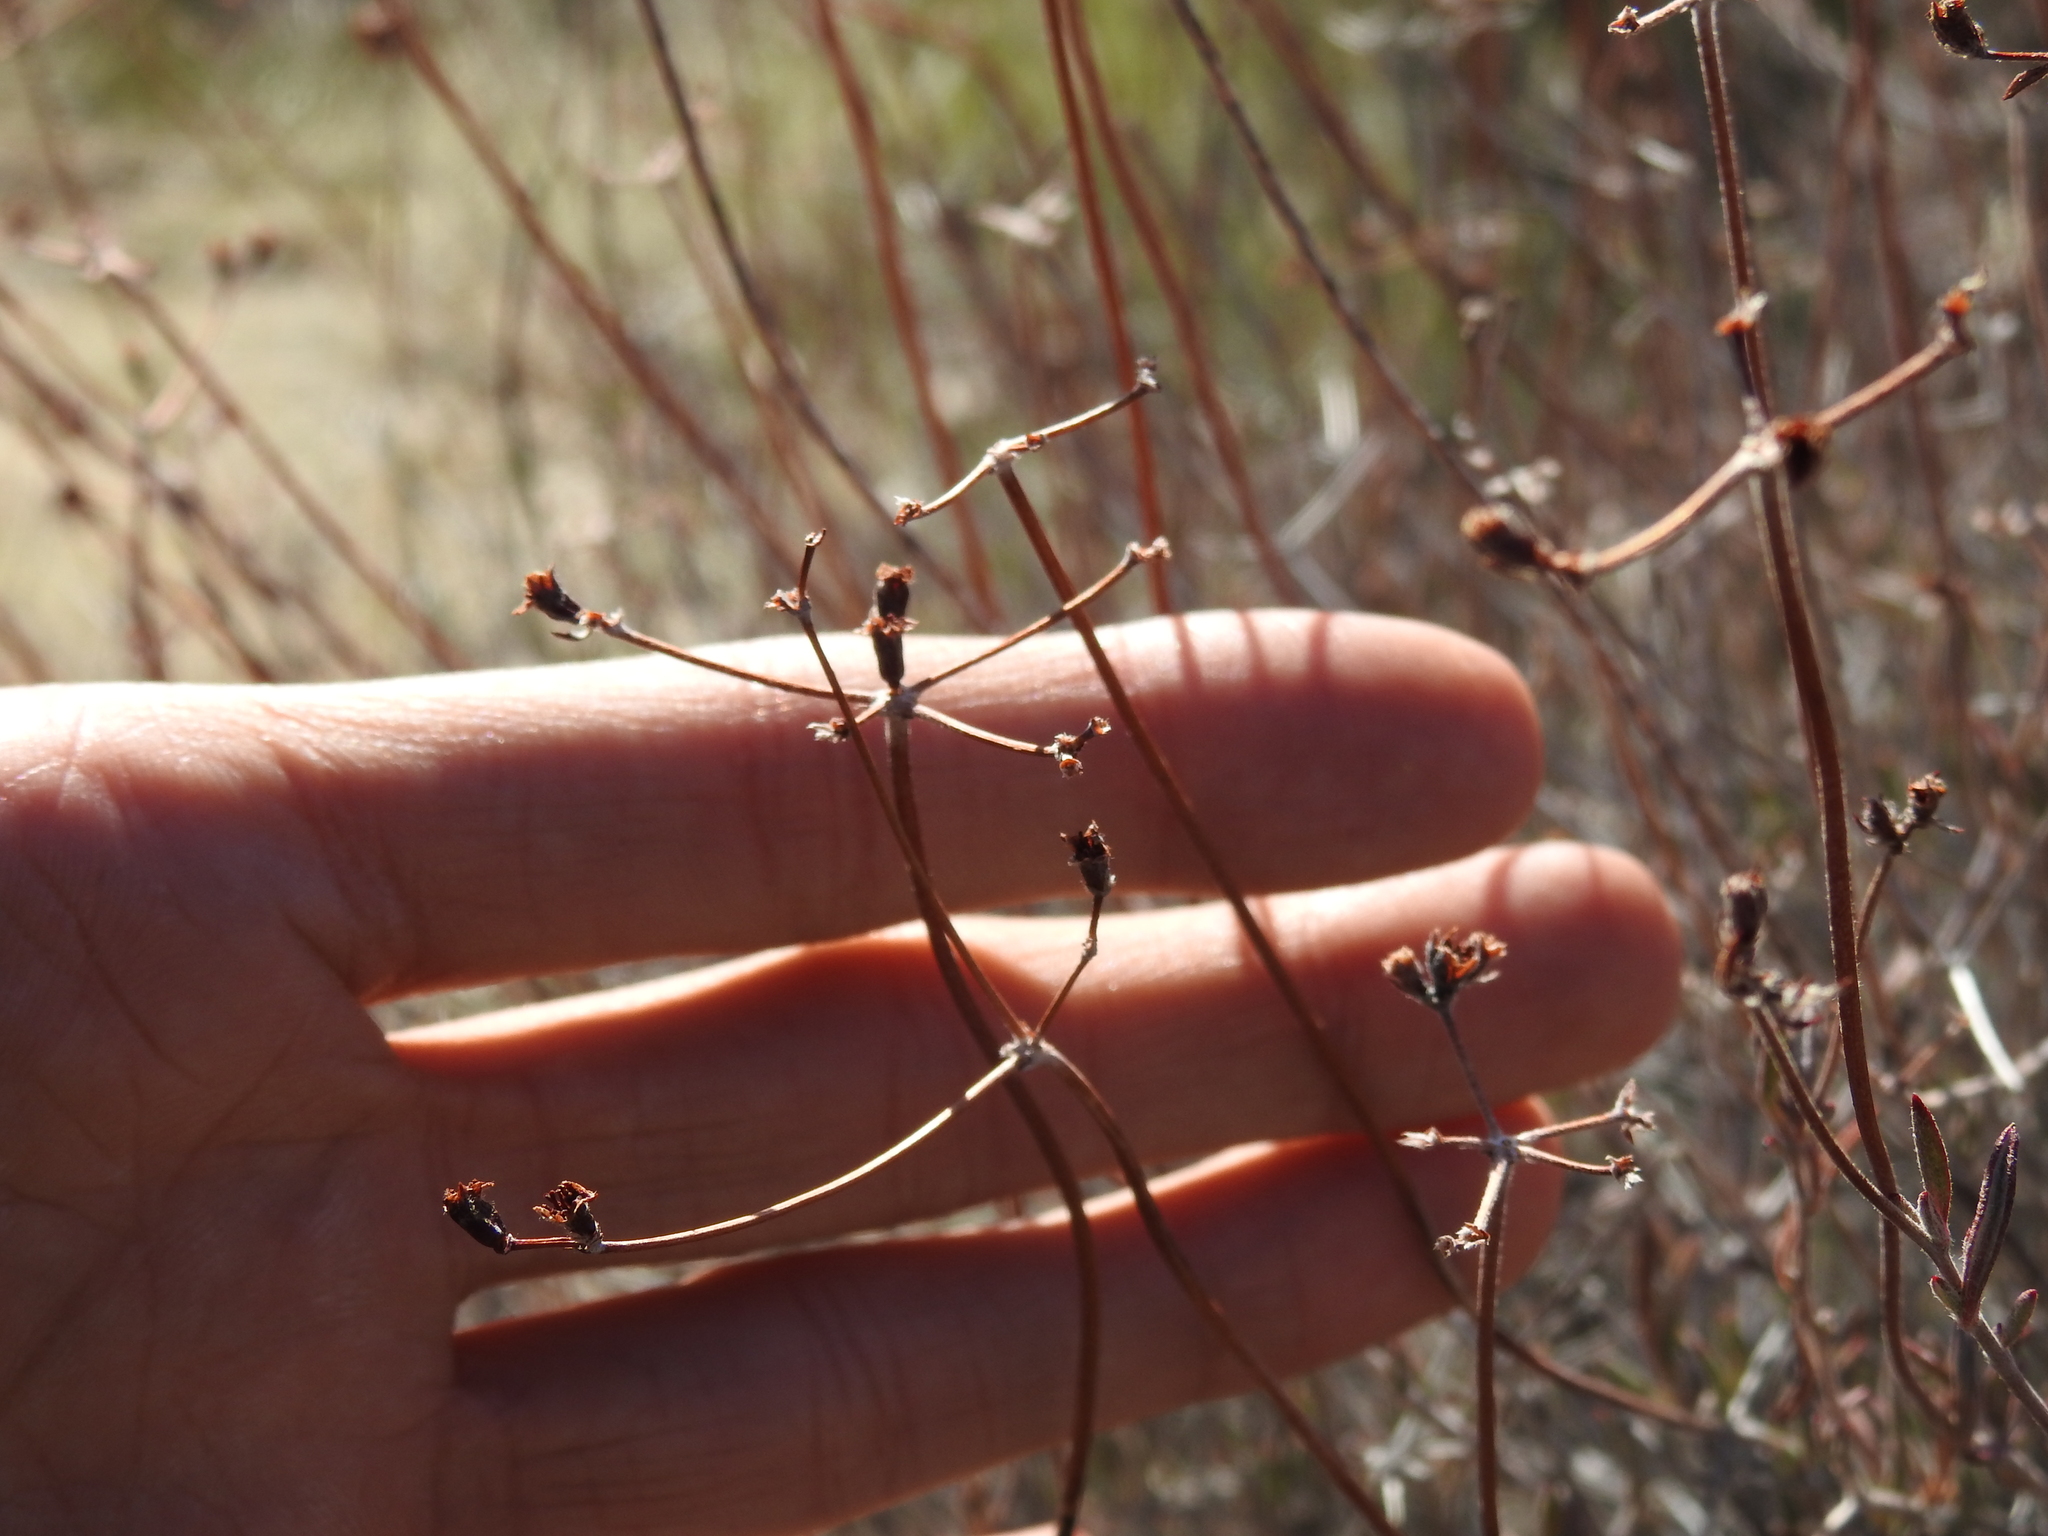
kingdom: Plantae
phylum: Tracheophyta
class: Magnoliopsida
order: Caryophyllales
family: Polygonaceae
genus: Eriogonum
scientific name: Eriogonum fasciculatum
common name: California wild buckwheat
